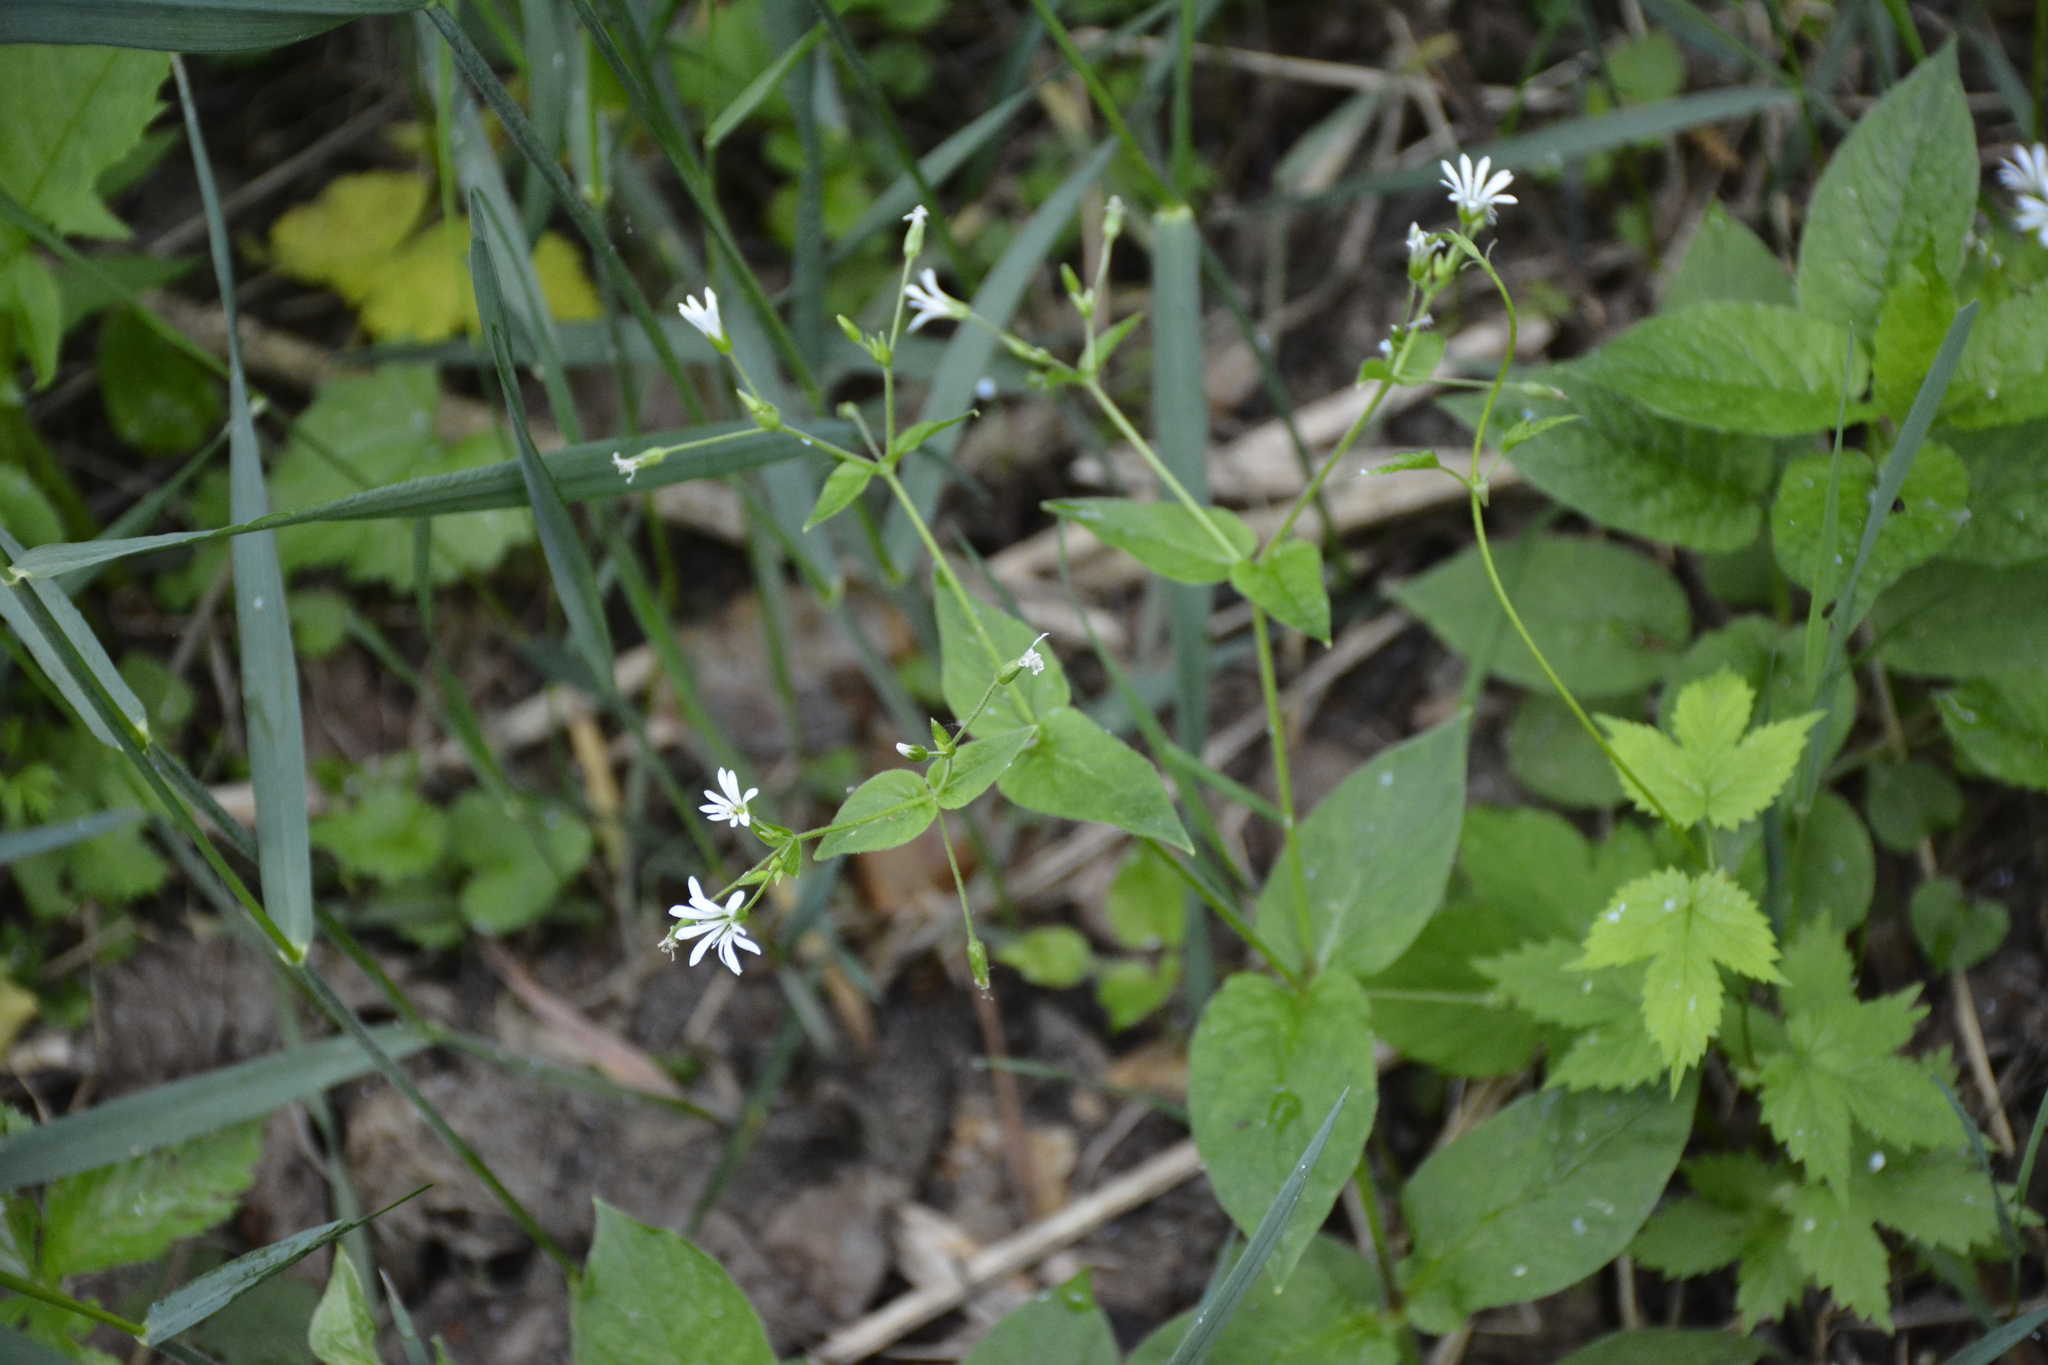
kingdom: Plantae
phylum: Tracheophyta
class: Magnoliopsida
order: Caryophyllales
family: Caryophyllaceae
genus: Stellaria
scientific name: Stellaria nemorum
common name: Wood stitchwort
